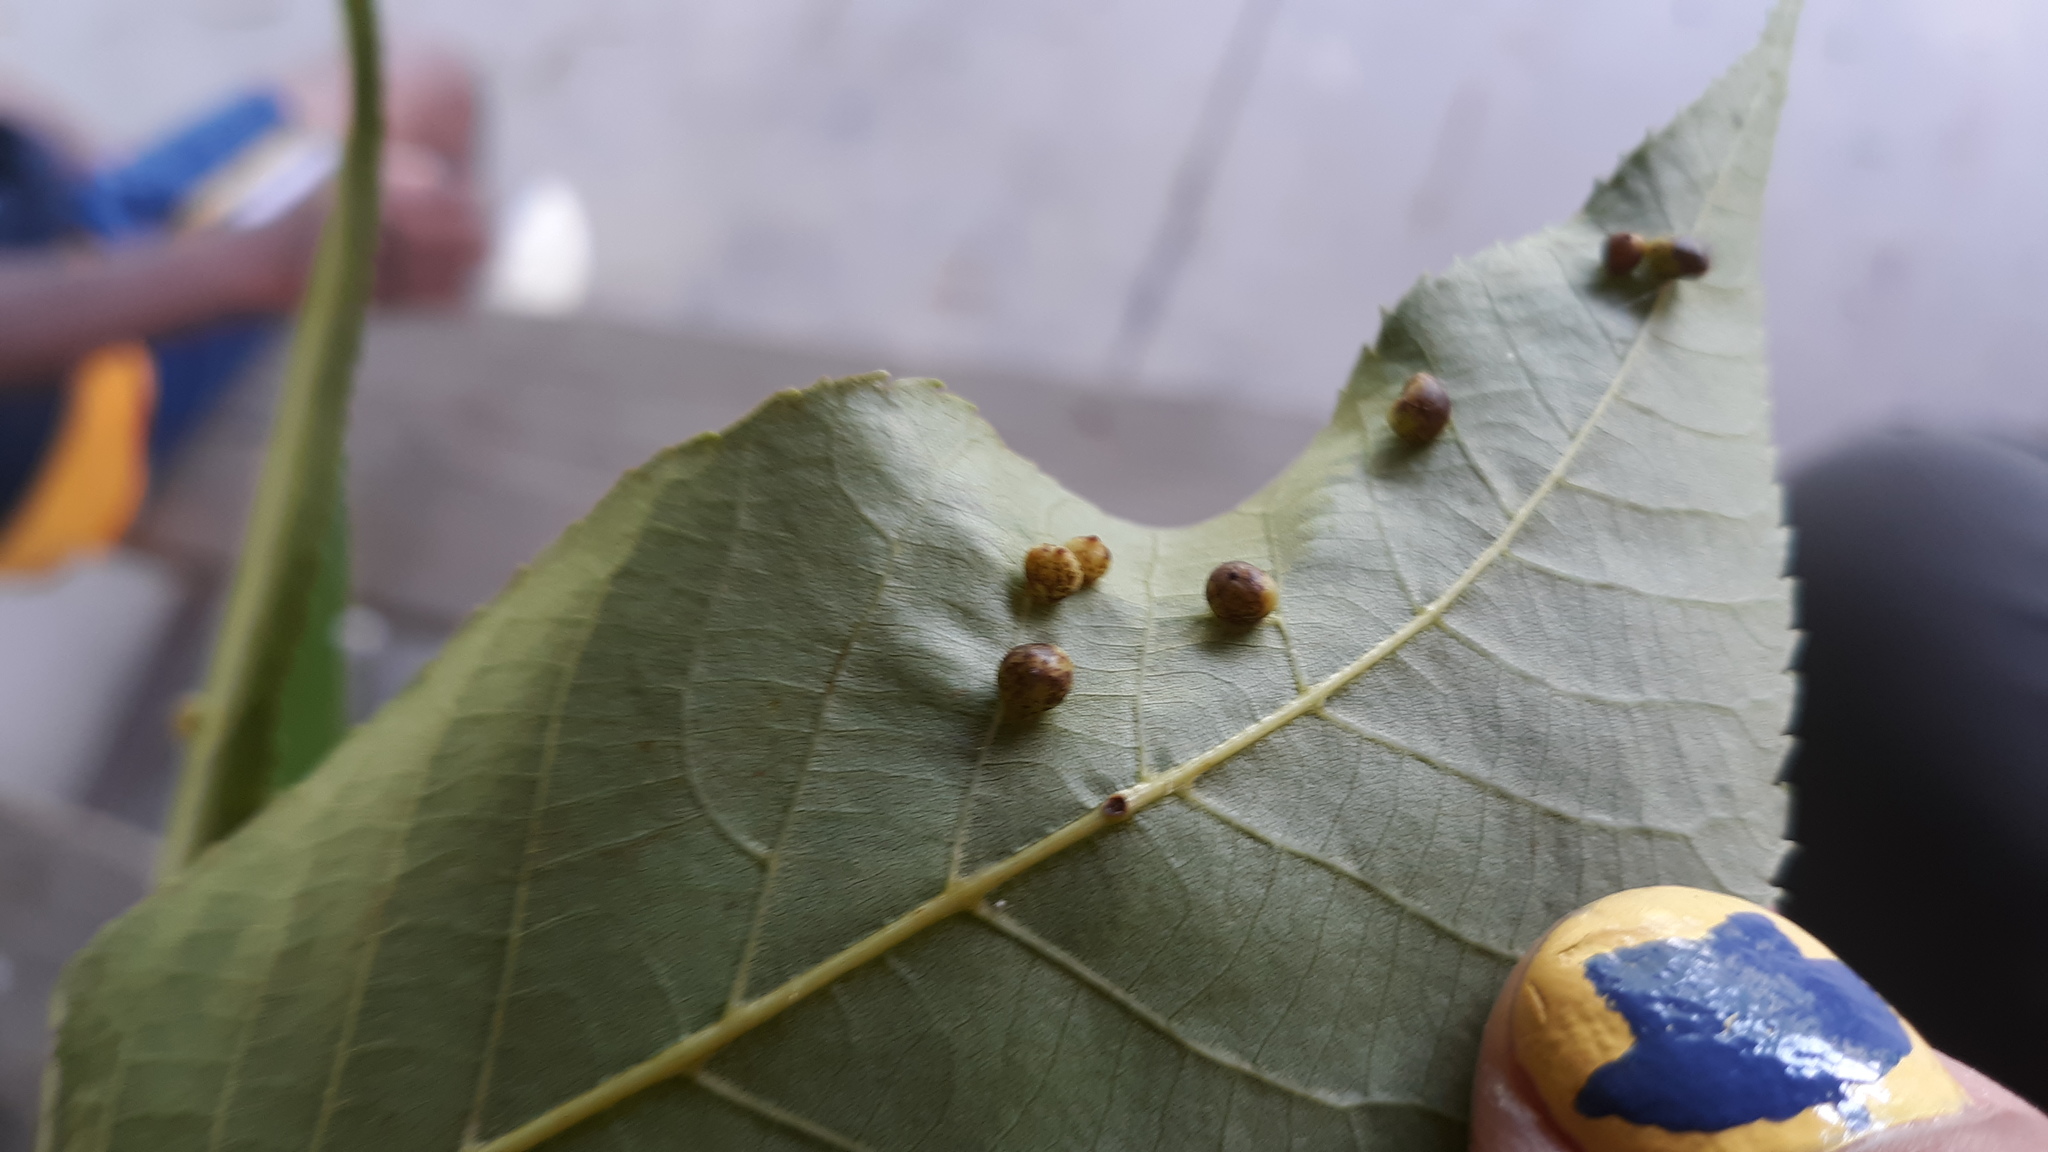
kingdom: Animalia
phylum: Arthropoda
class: Insecta
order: Diptera
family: Cecidomyiidae
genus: Caryomyia
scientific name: Caryomyia caryae
